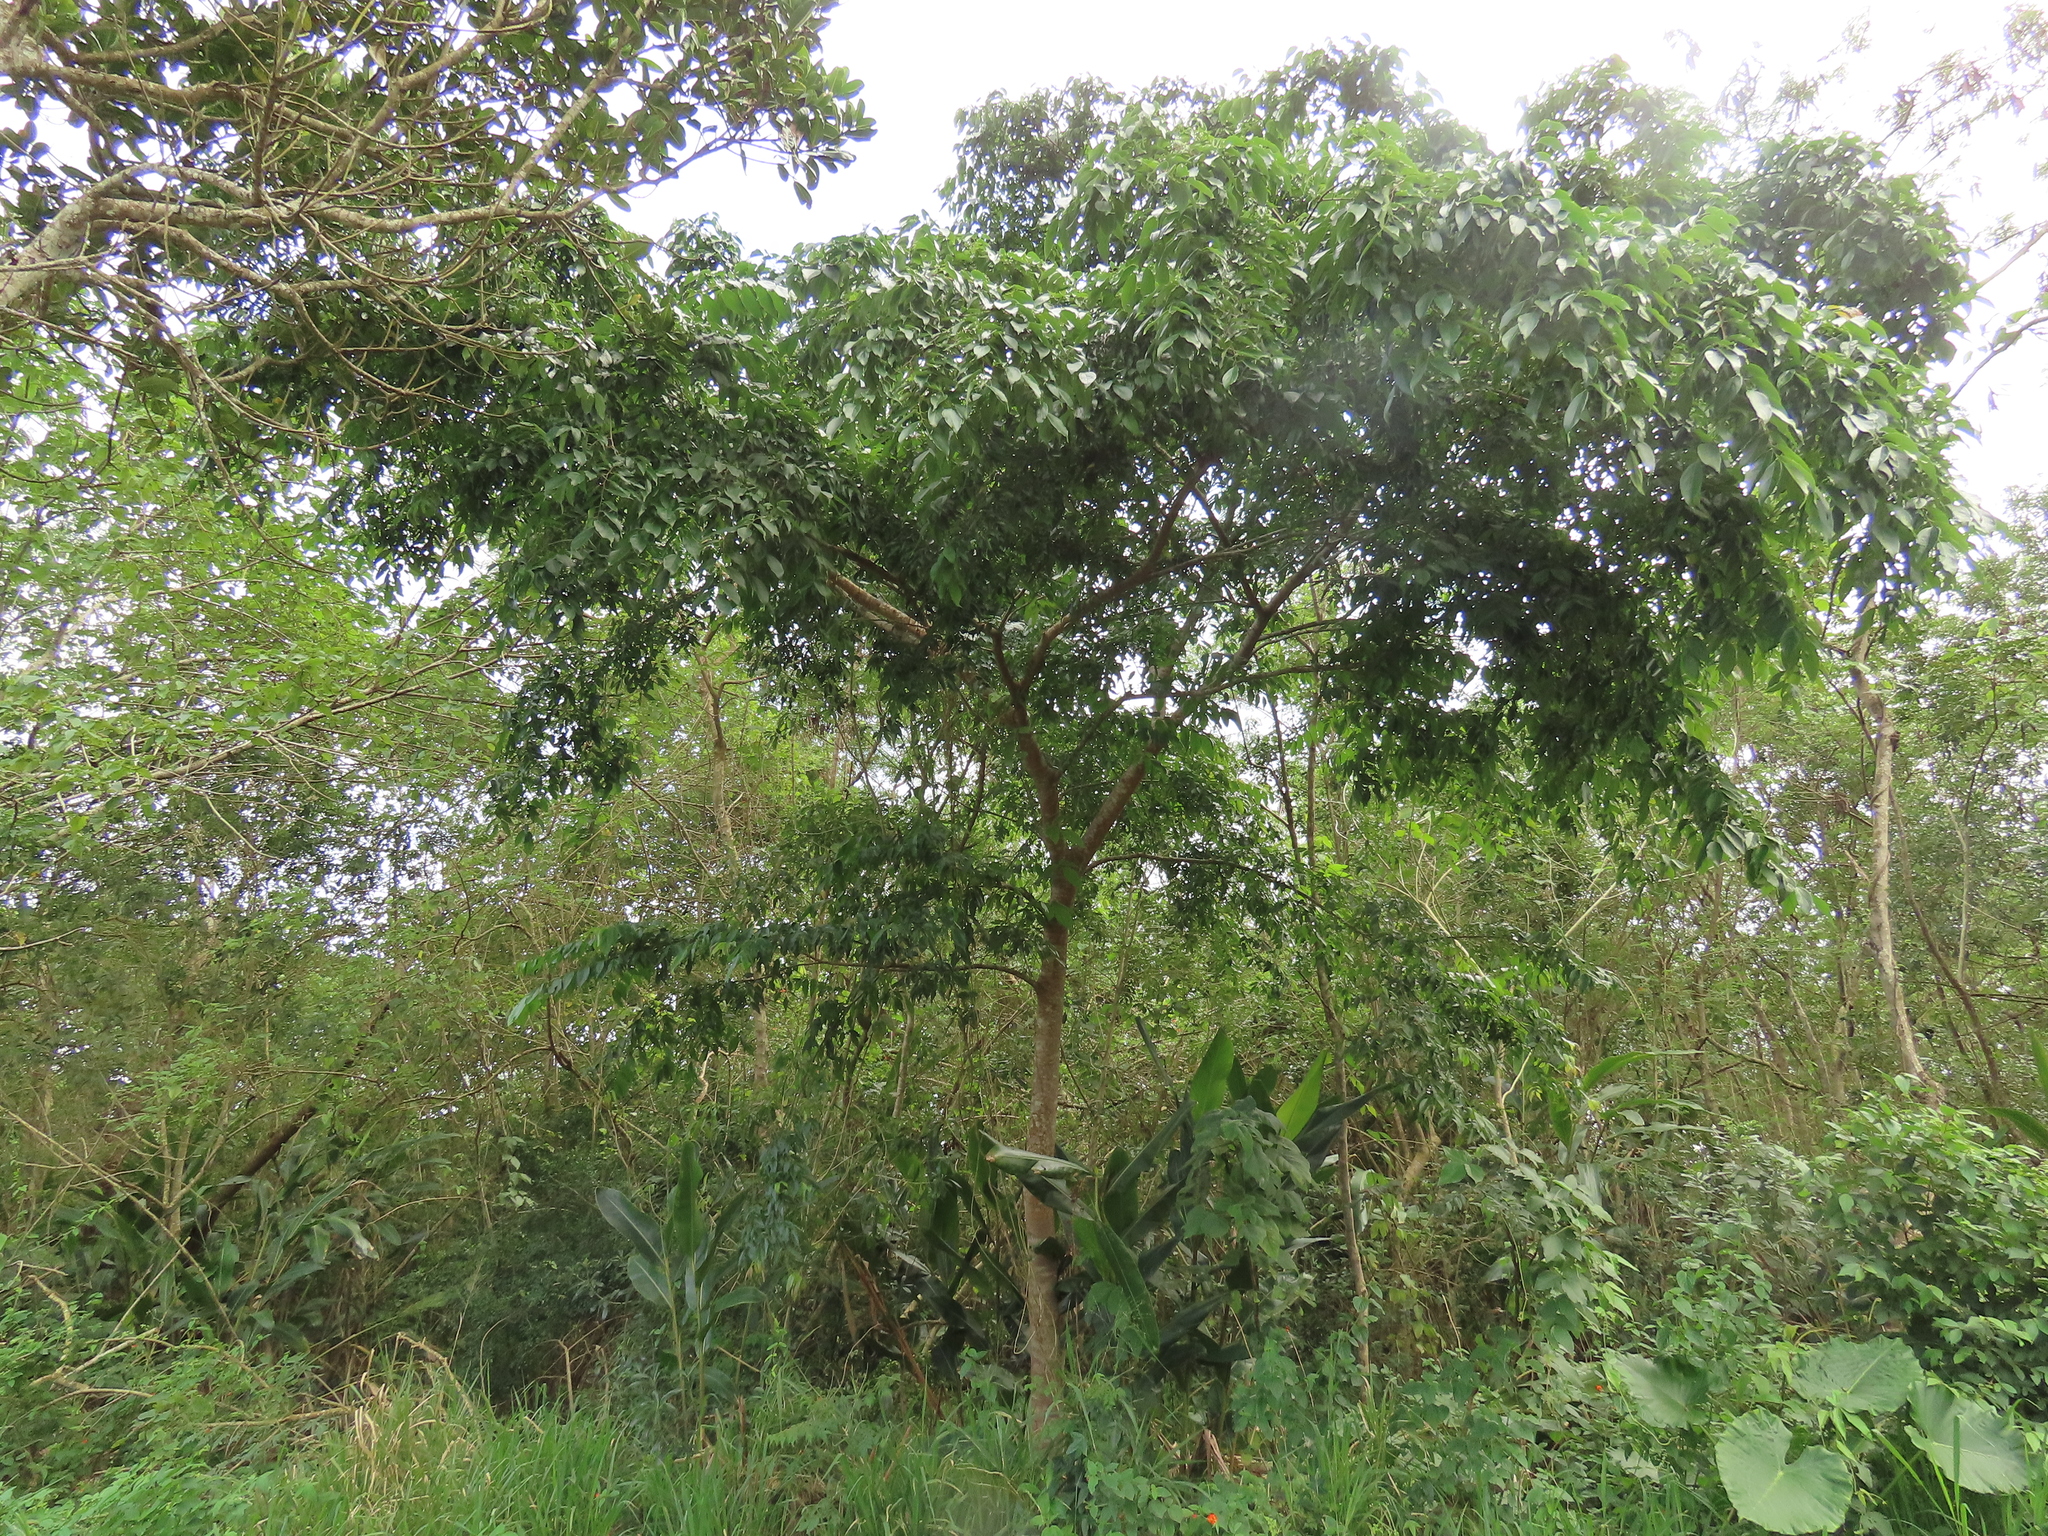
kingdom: Plantae
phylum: Tracheophyta
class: Magnoliopsida
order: Rosales
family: Cannabaceae
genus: Celtis
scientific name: Celtis tetrandra
